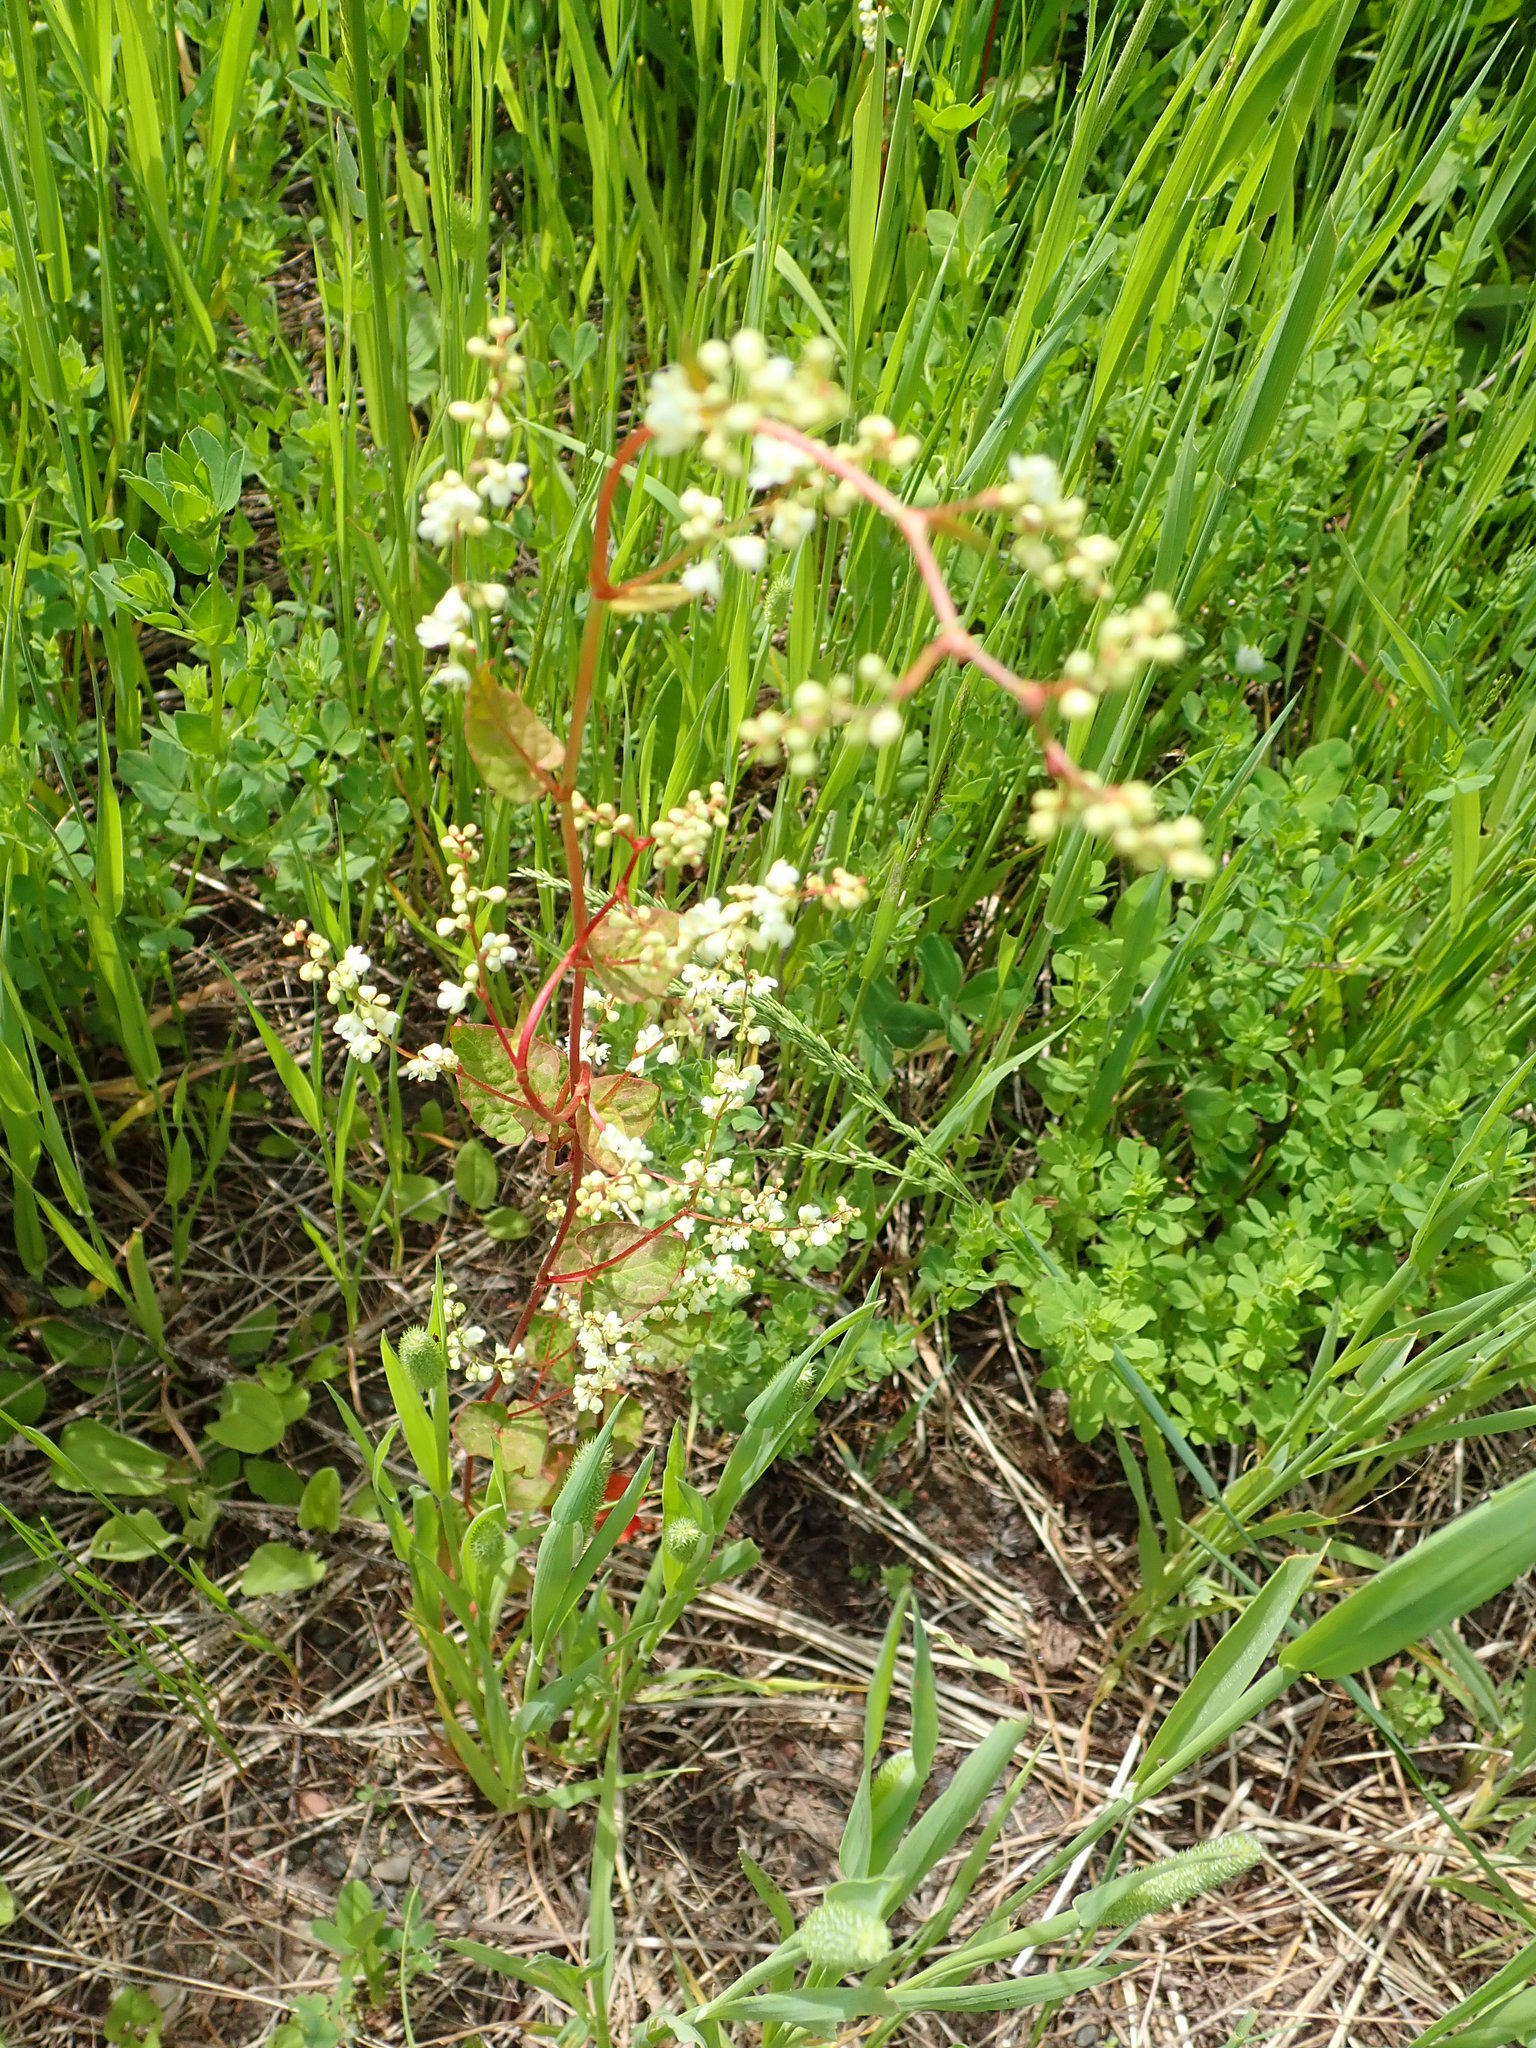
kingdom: Plantae
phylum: Tracheophyta
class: Magnoliopsida
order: Caryophyllales
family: Polygonaceae
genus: Parogonum
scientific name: Parogonum ciliinode
